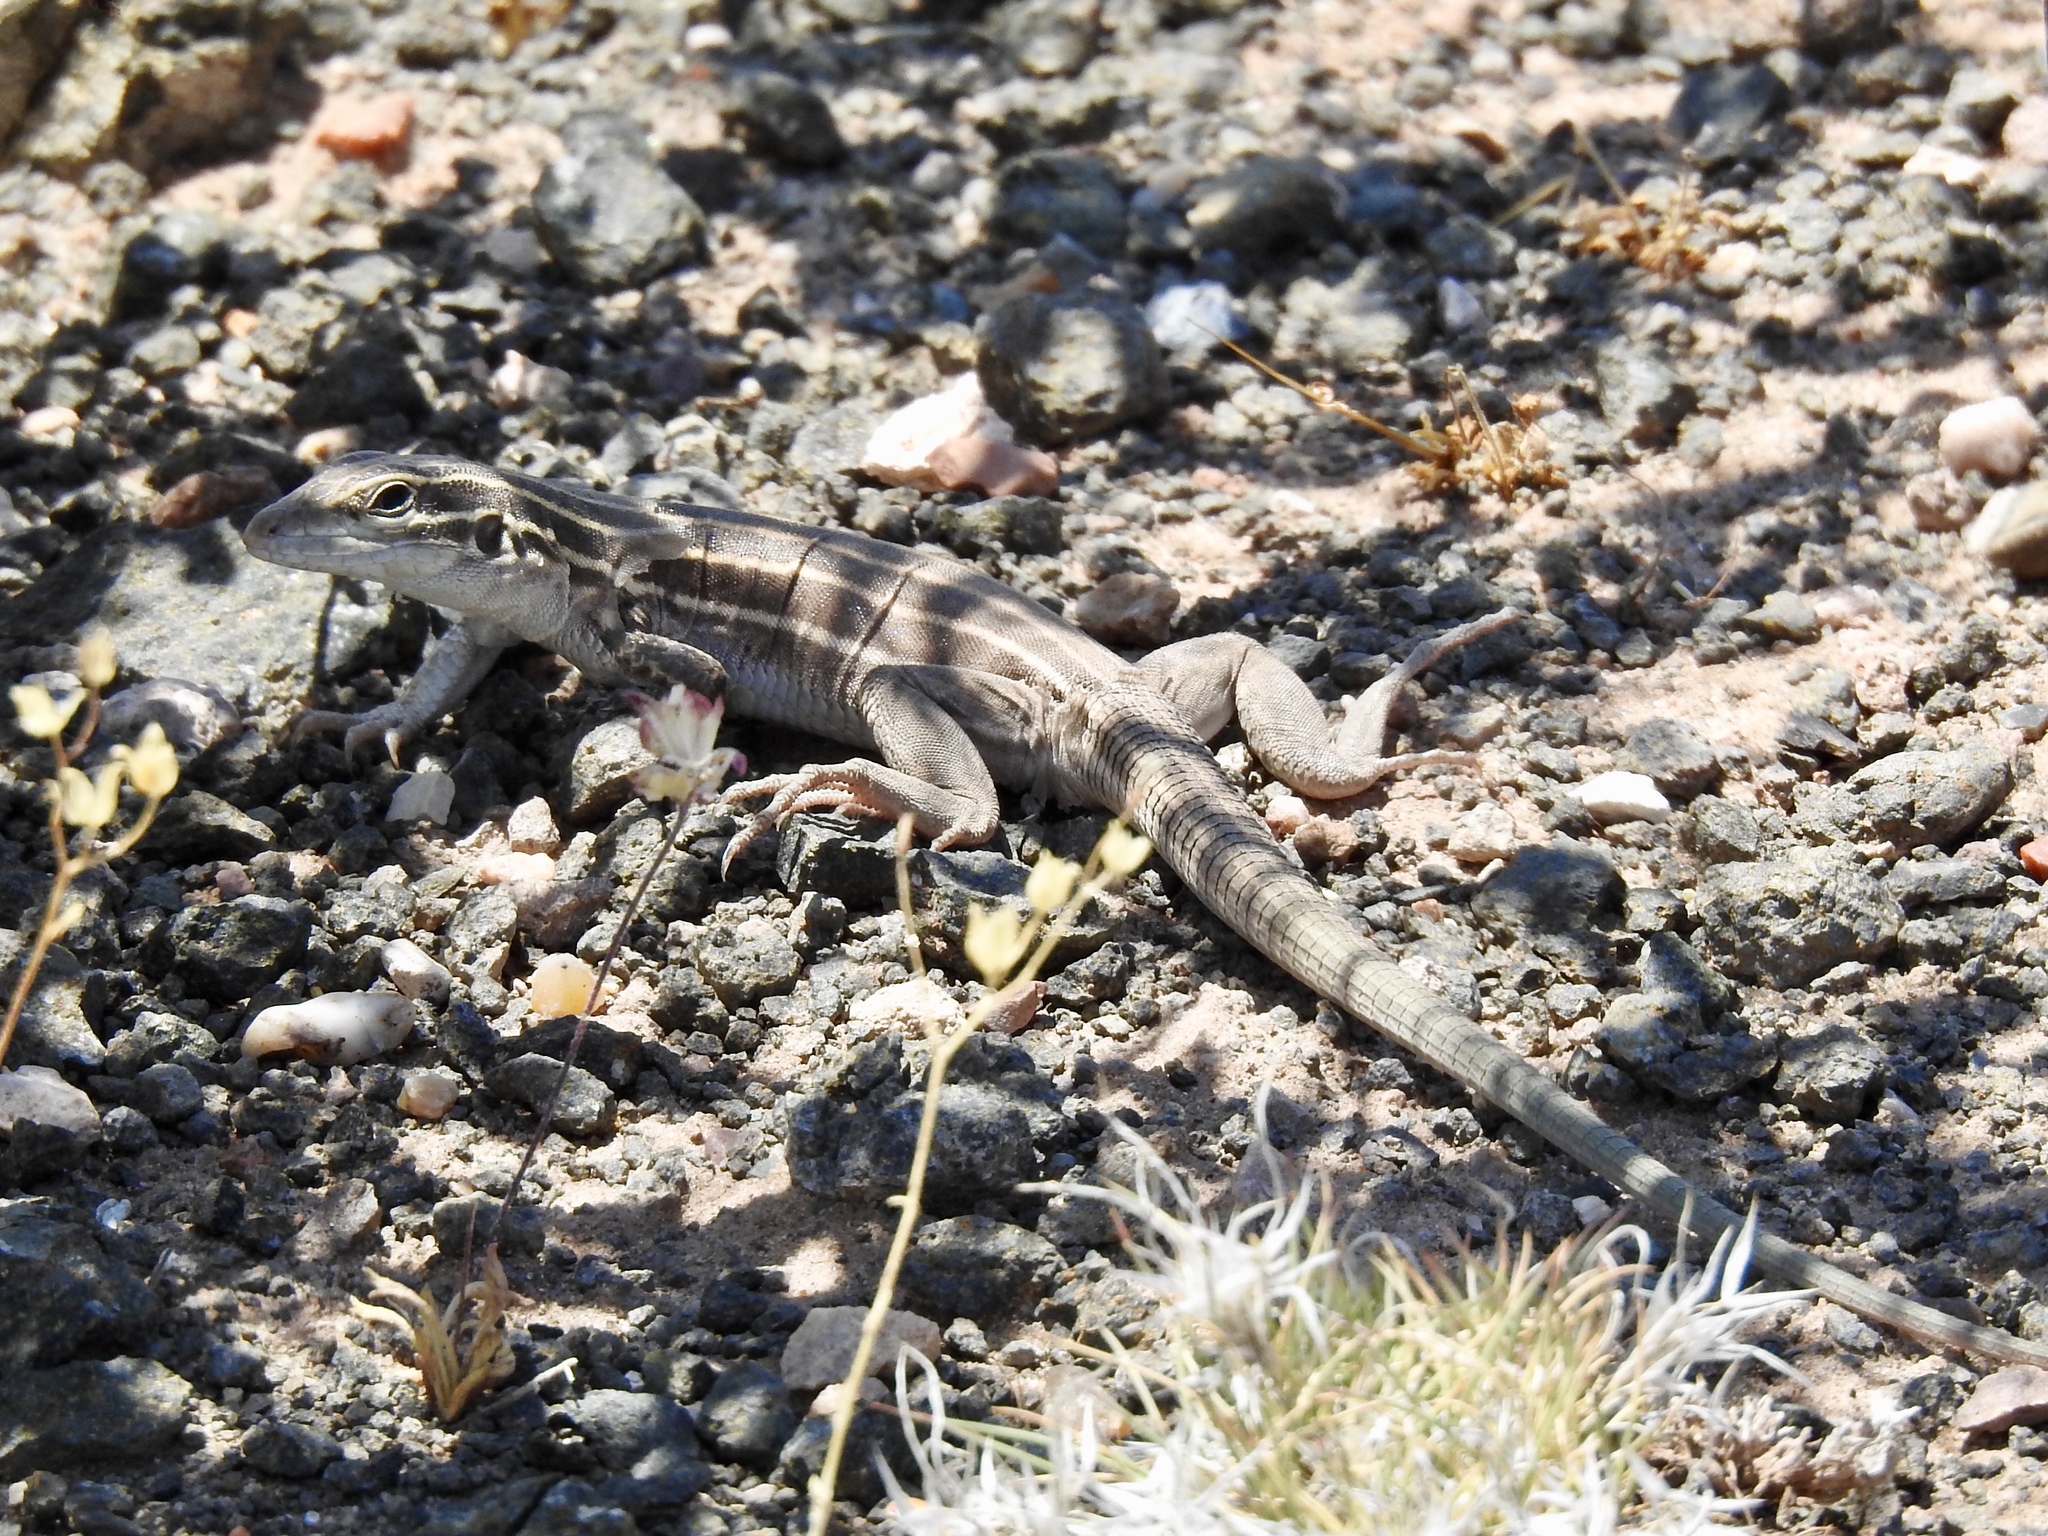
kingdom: Animalia
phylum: Chordata
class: Squamata
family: Teiidae
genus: Aspidoscelis
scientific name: Aspidoscelis velox
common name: Plateau striped whiptail
